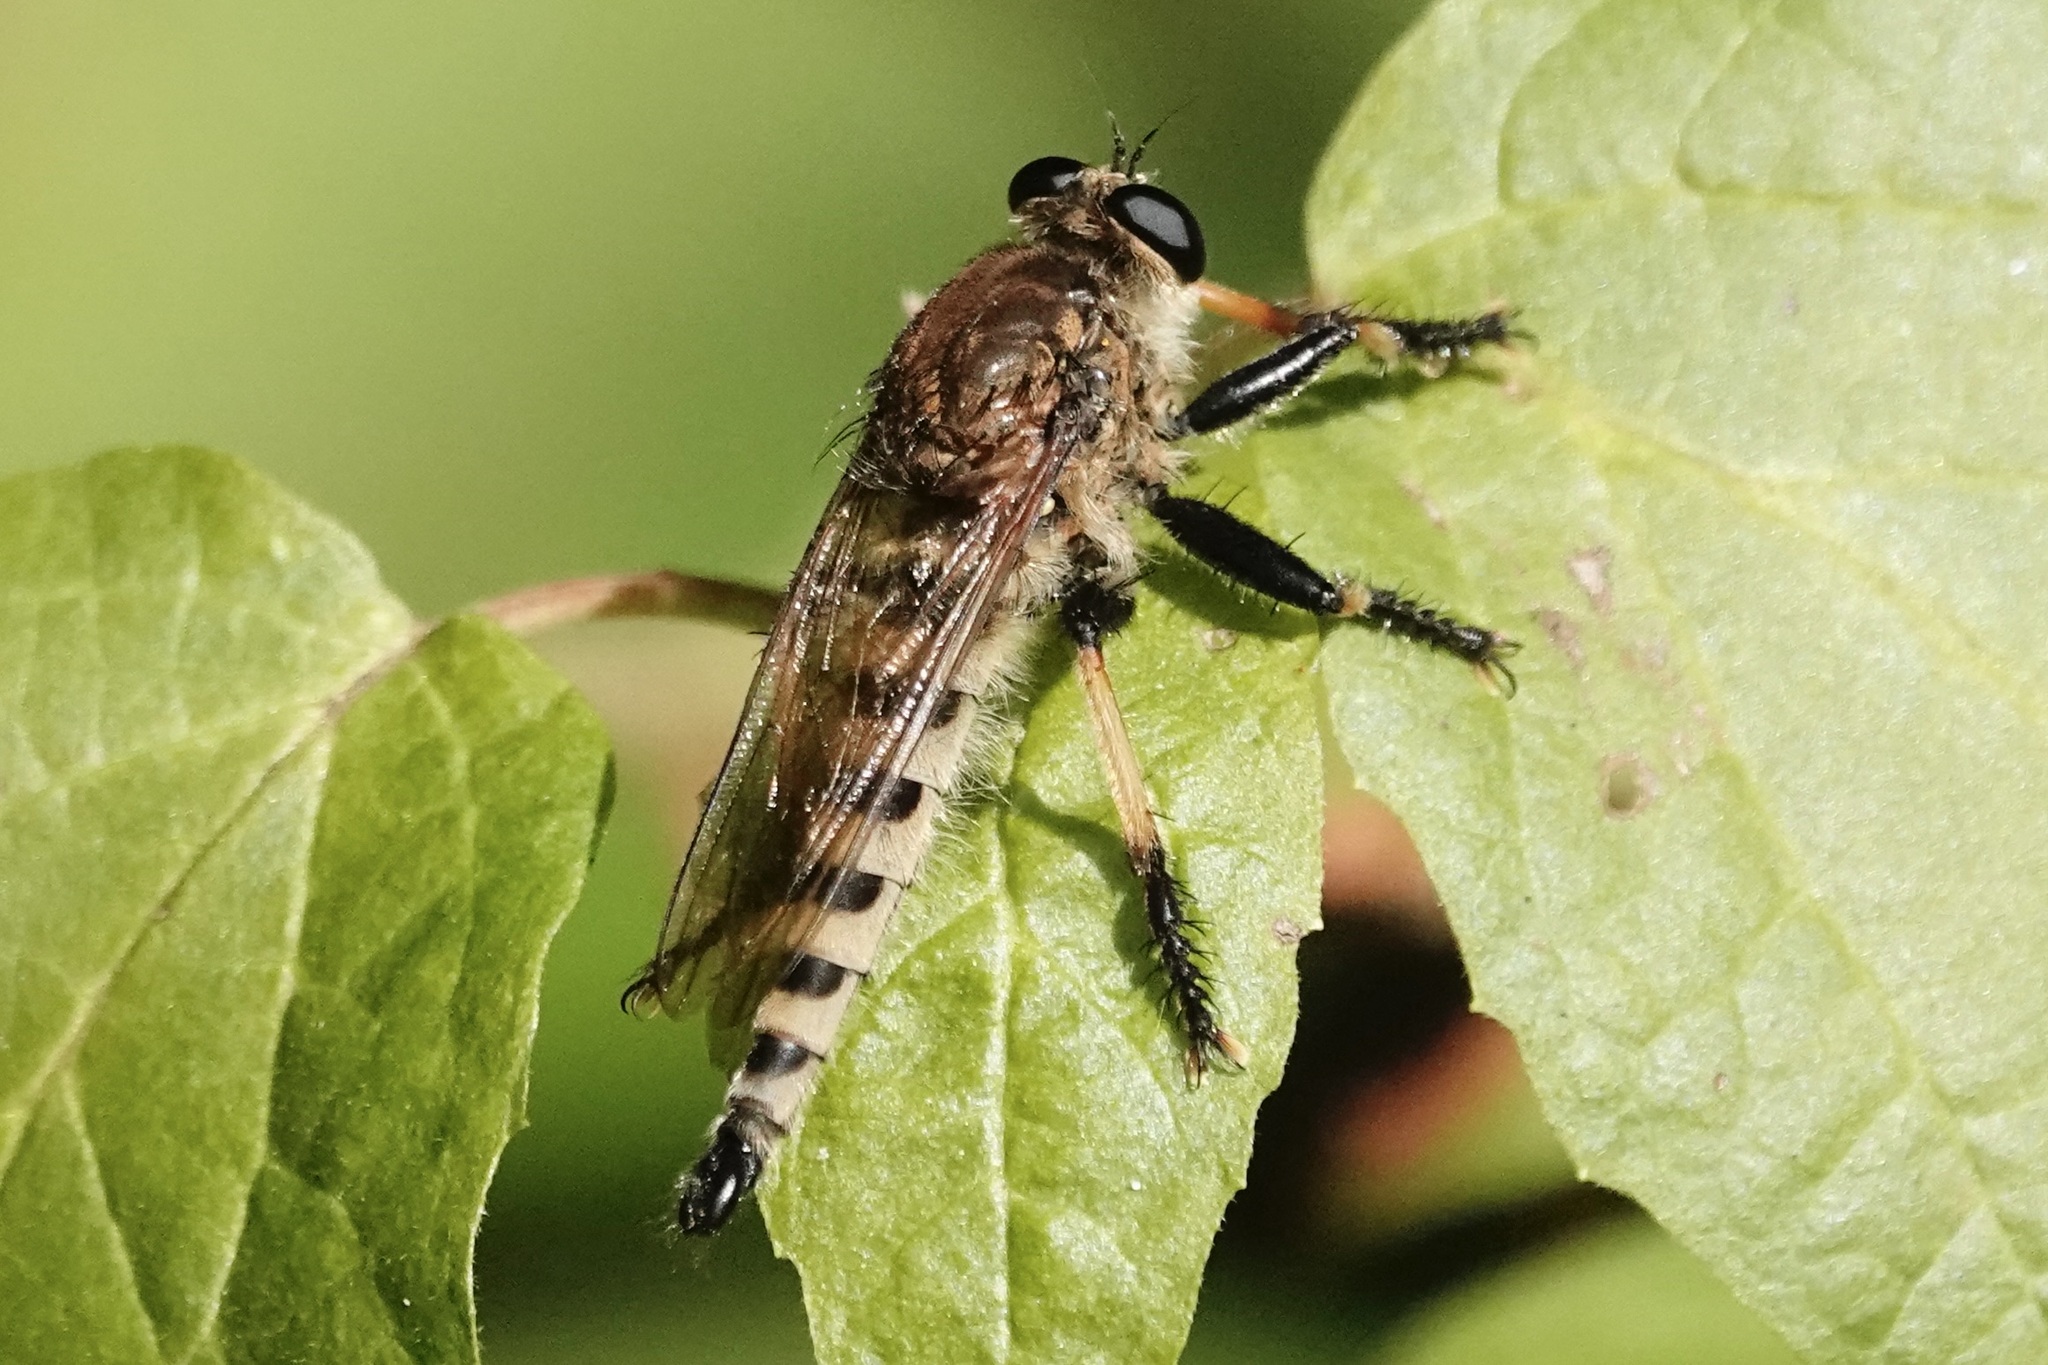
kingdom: Animalia
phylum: Arthropoda
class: Insecta
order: Diptera
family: Asilidae
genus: Promachus
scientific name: Promachus rufipes
